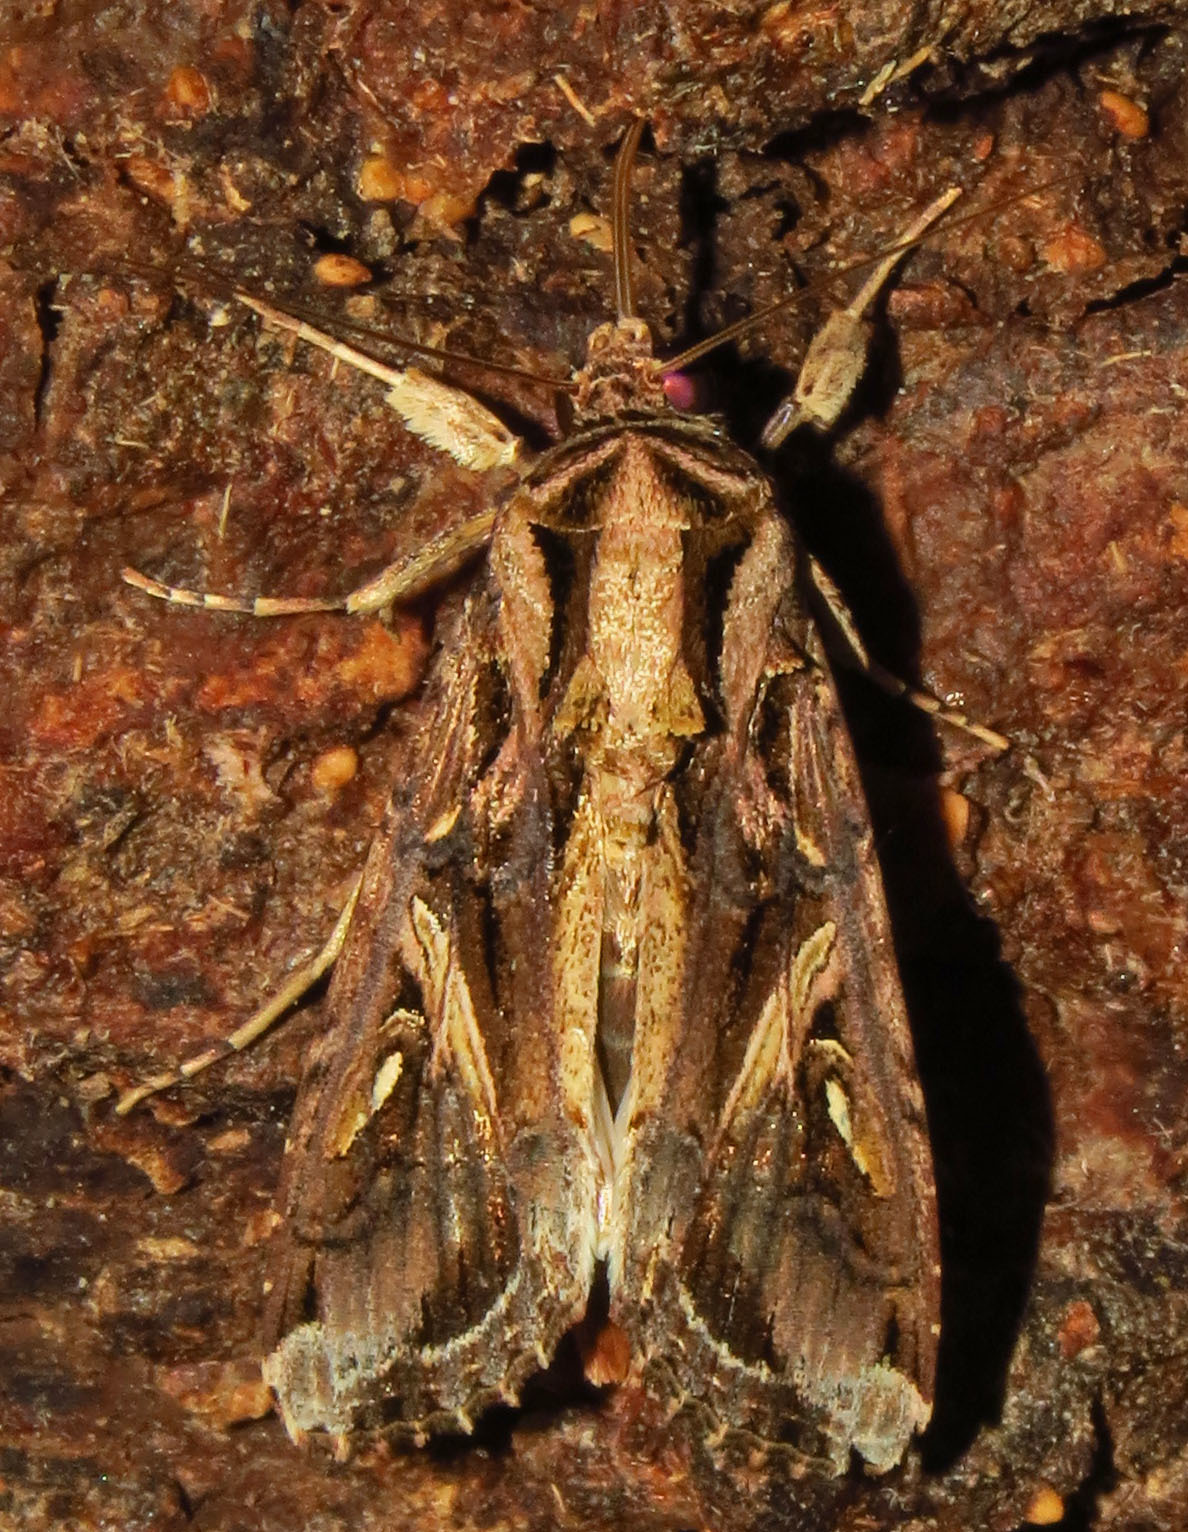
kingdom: Animalia
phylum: Arthropoda
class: Insecta
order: Lepidoptera
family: Noctuidae
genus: Spodoptera
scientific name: Spodoptera dolichos
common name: Sweetpotato armyworm
